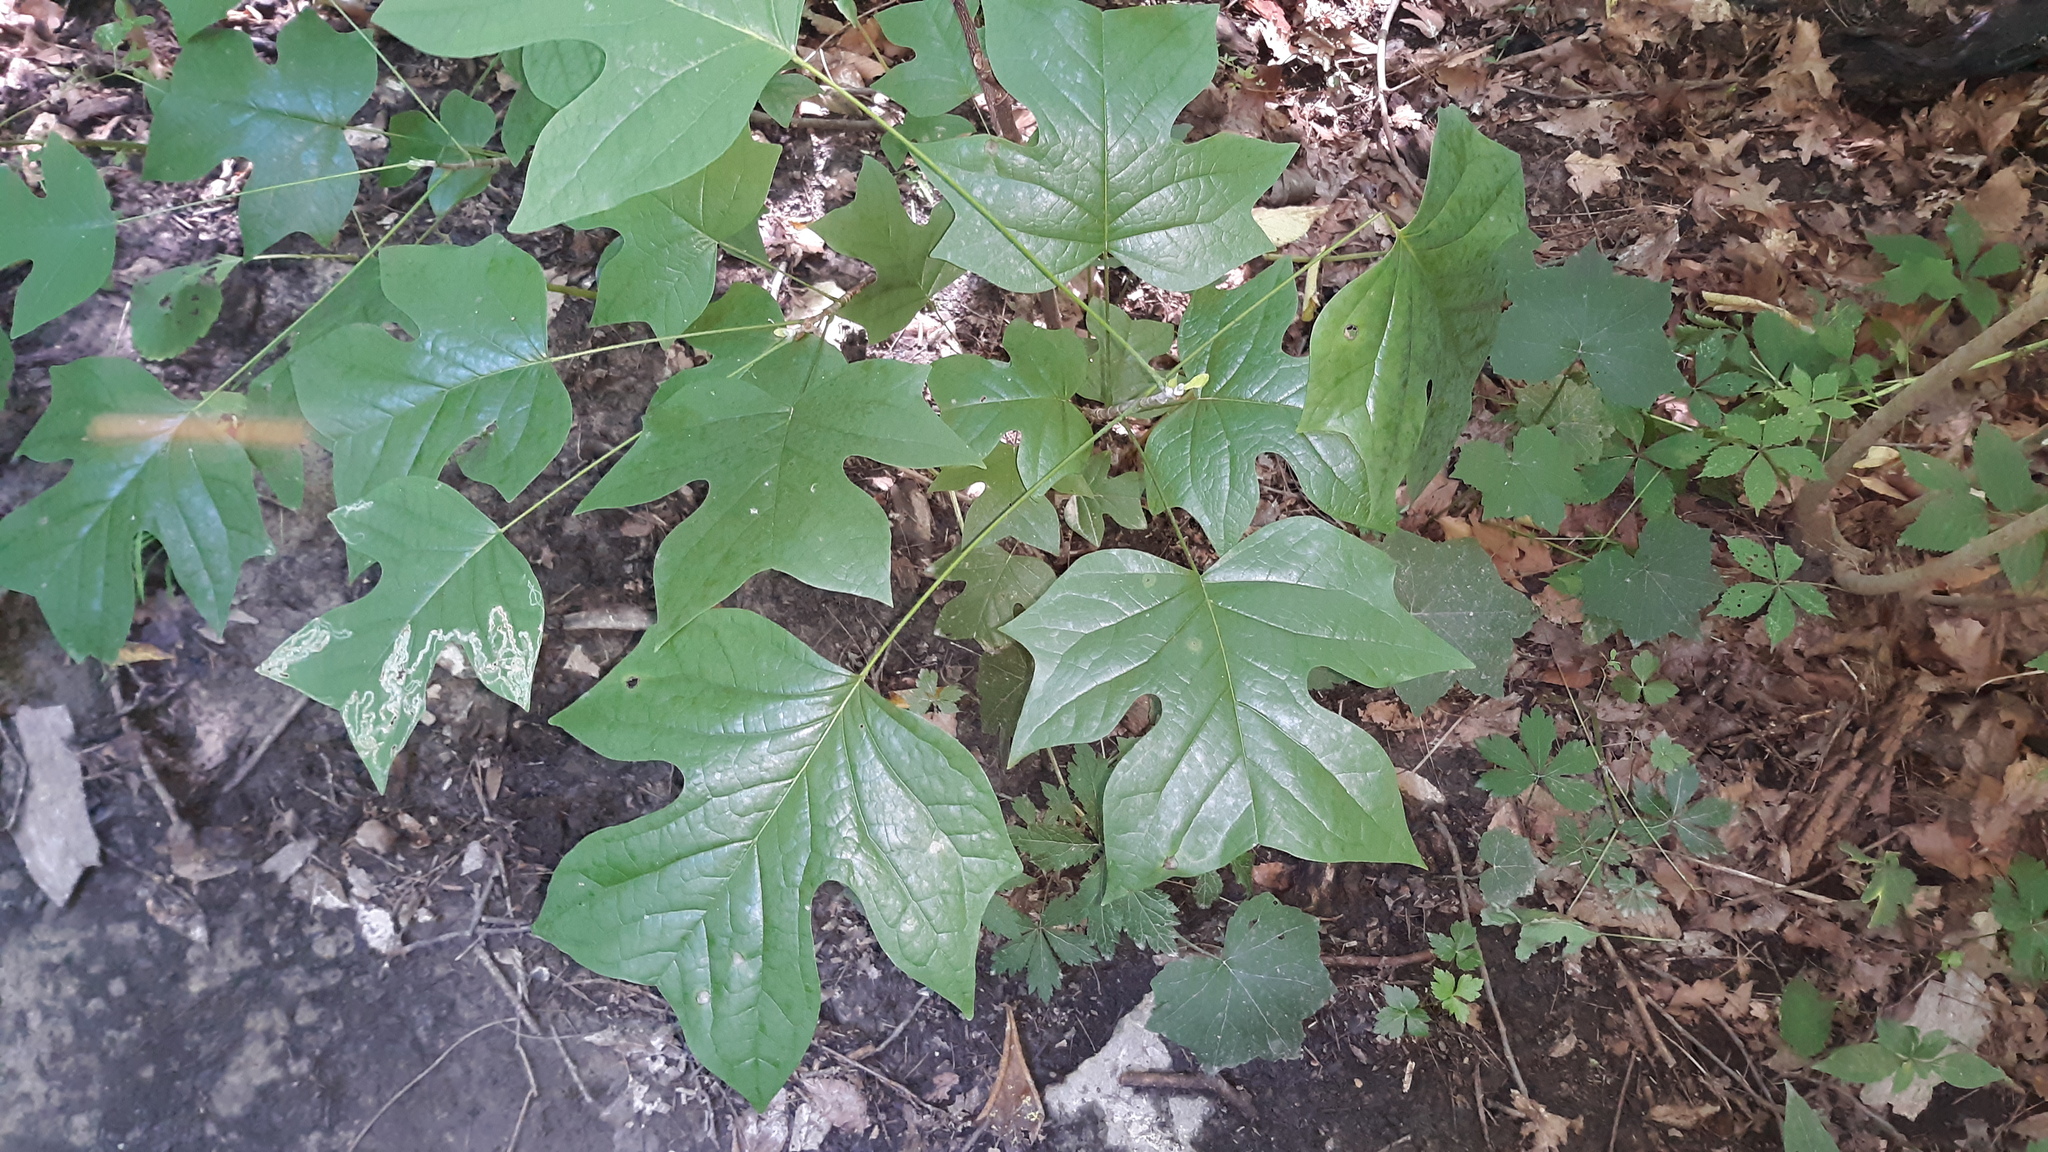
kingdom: Plantae
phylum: Tracheophyta
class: Magnoliopsida
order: Magnoliales
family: Magnoliaceae
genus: Liriodendron
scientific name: Liriodendron tulipifera
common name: Tulip tree
